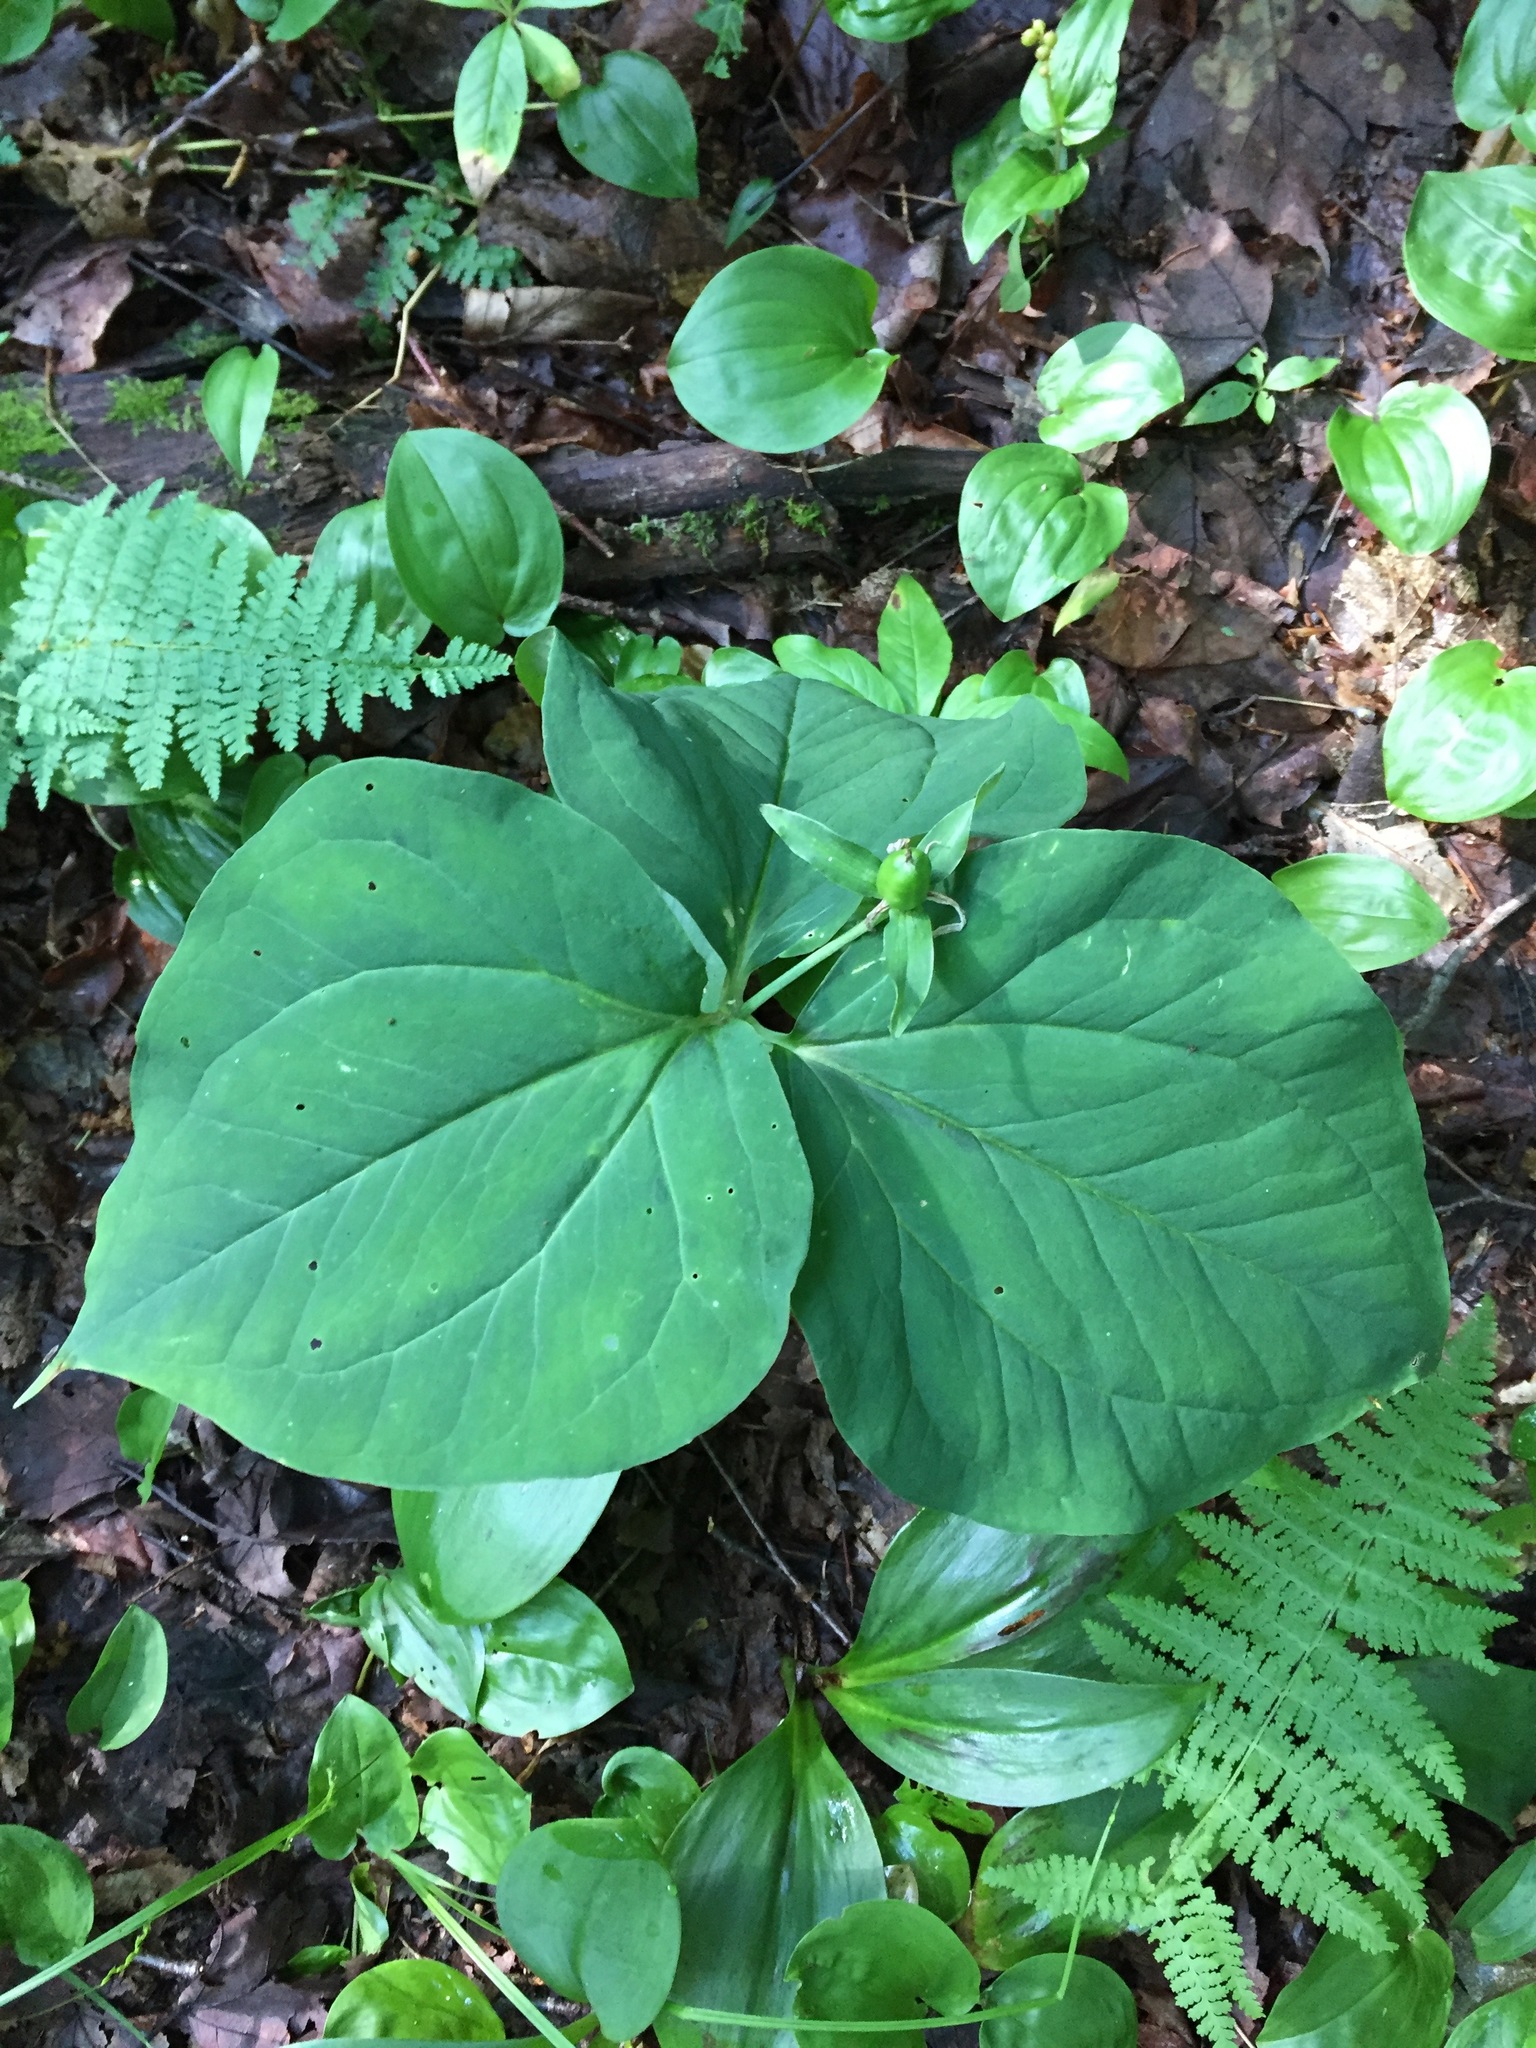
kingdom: Plantae
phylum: Tracheophyta
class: Liliopsida
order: Liliales
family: Melanthiaceae
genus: Trillium
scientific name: Trillium undulatum
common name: Paint trillium
